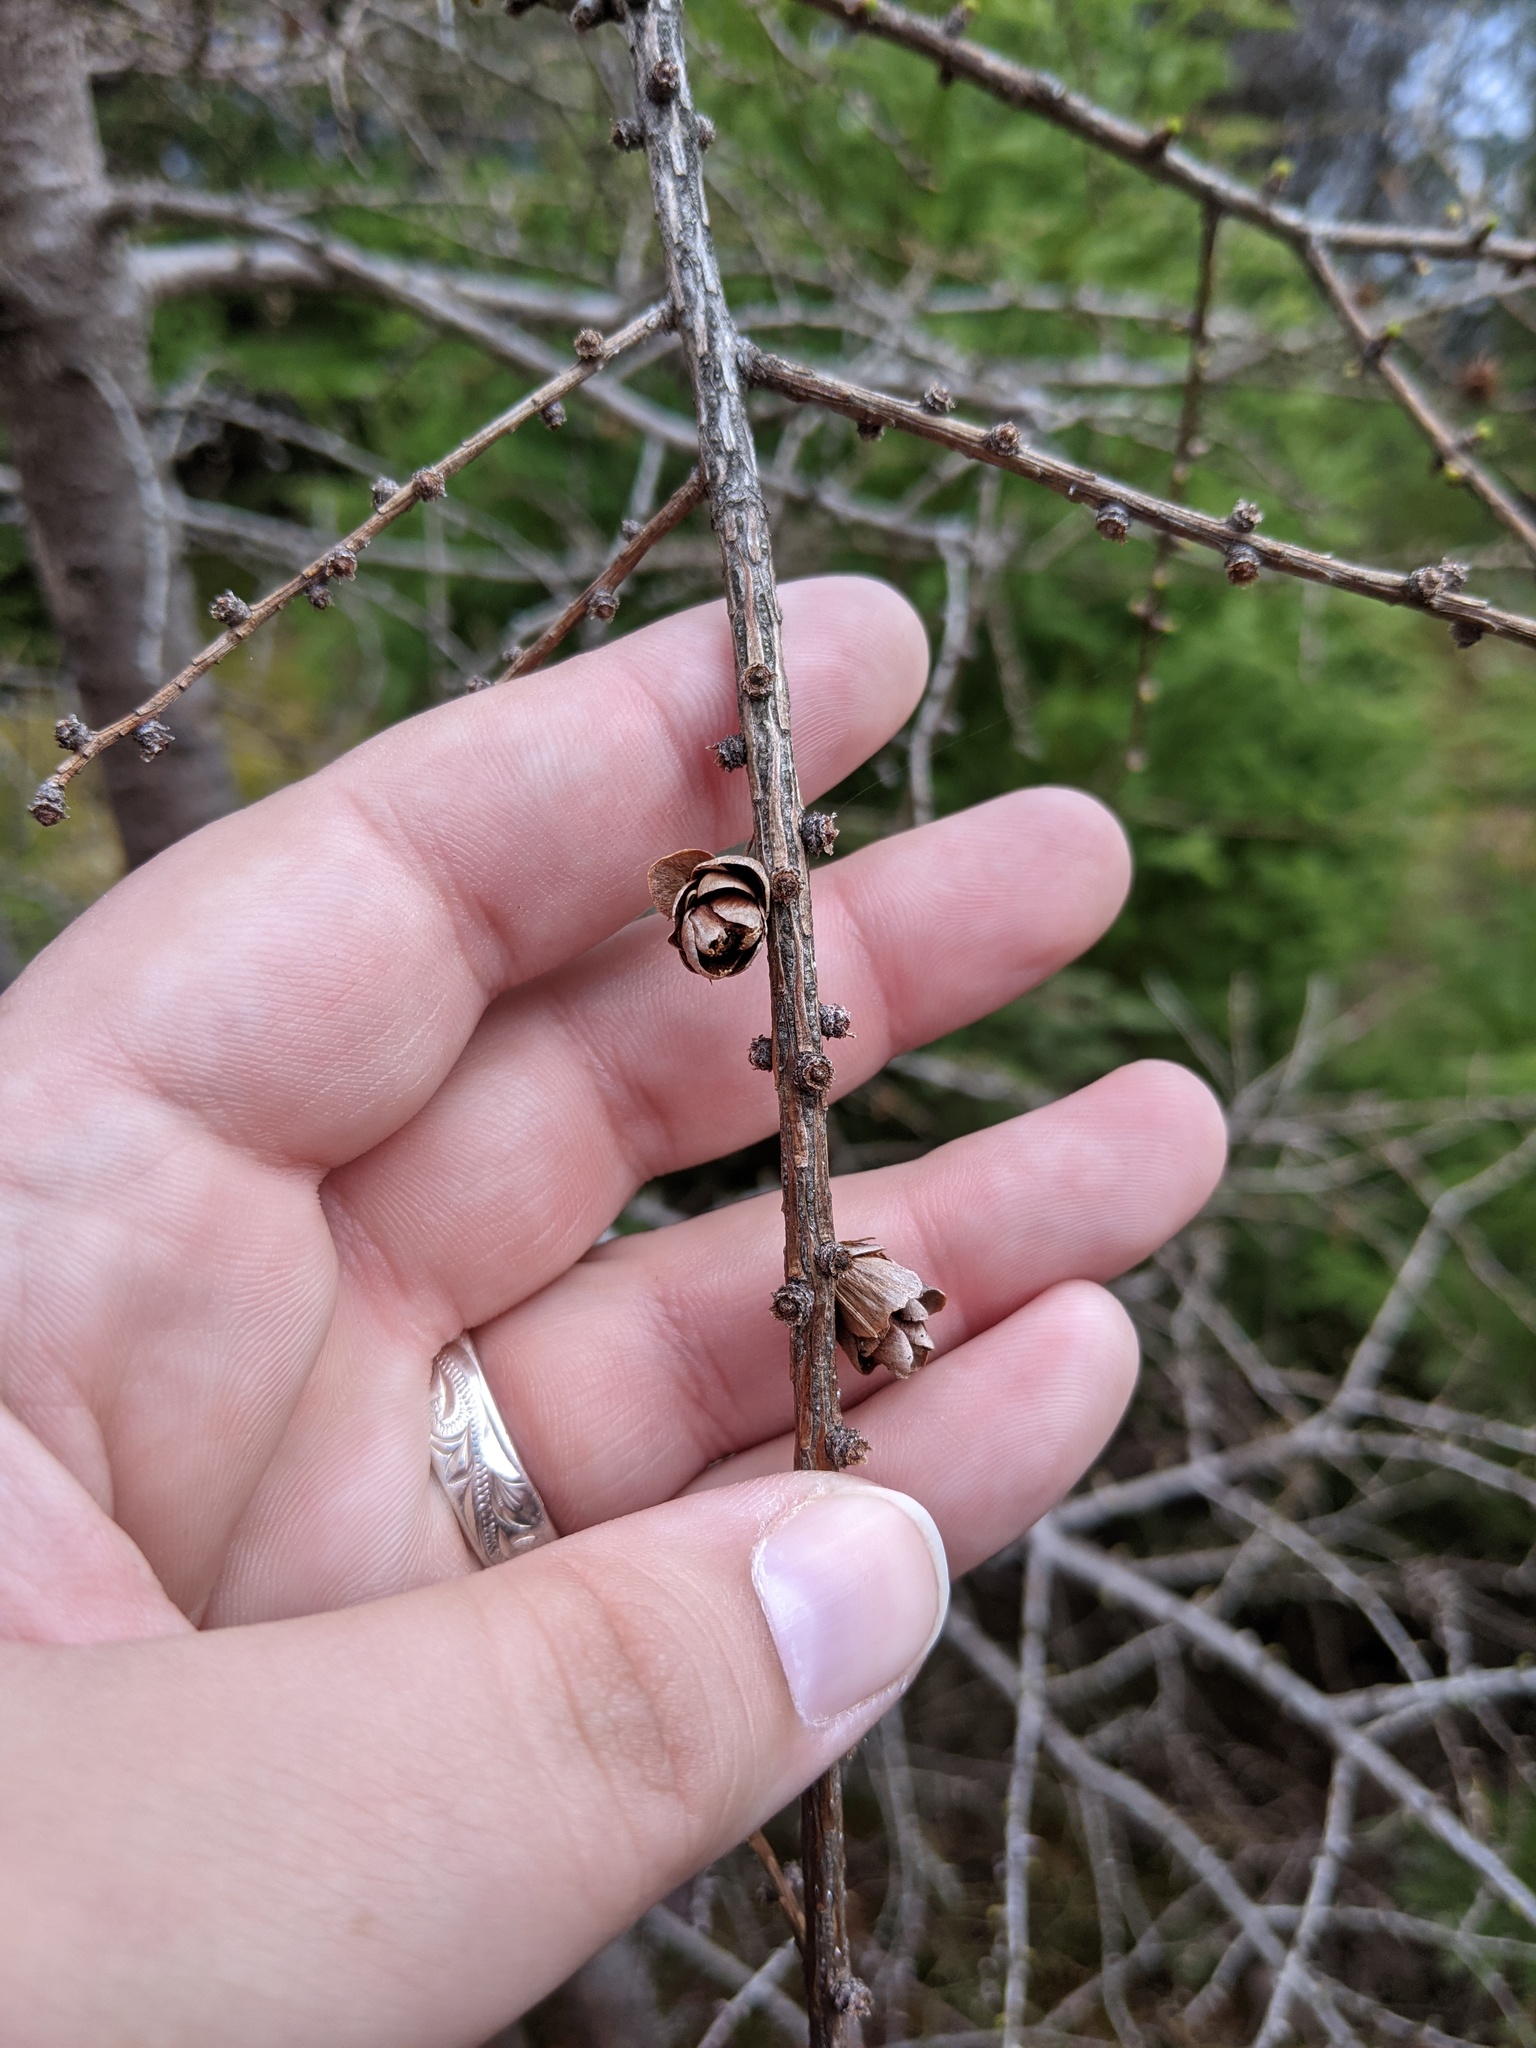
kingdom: Plantae
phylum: Tracheophyta
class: Pinopsida
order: Pinales
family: Pinaceae
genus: Larix
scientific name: Larix laricina
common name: American larch
